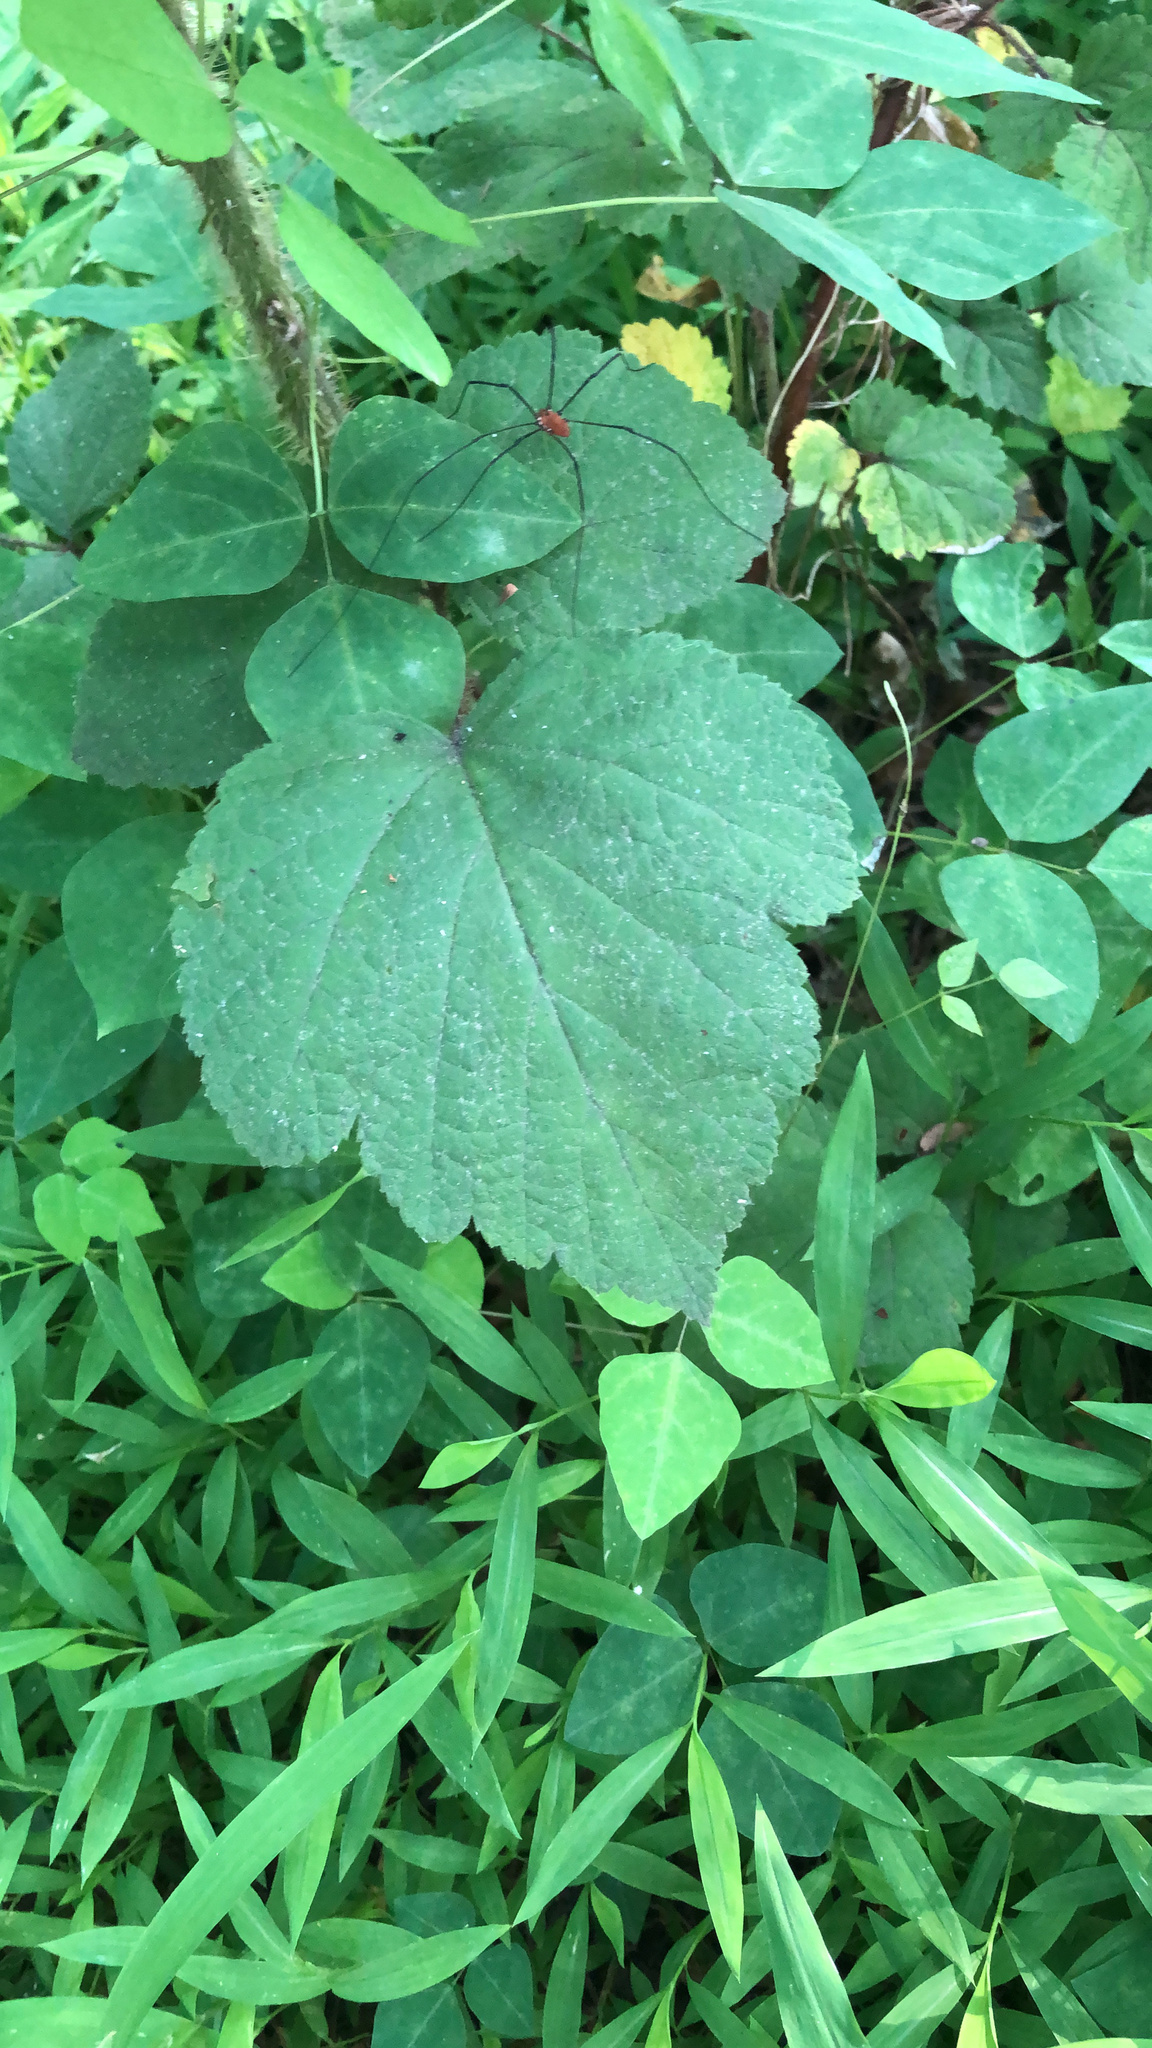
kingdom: Plantae
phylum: Tracheophyta
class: Magnoliopsida
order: Rosales
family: Rosaceae
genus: Rubus
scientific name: Rubus phoenicolasius
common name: Japanese wineberry
